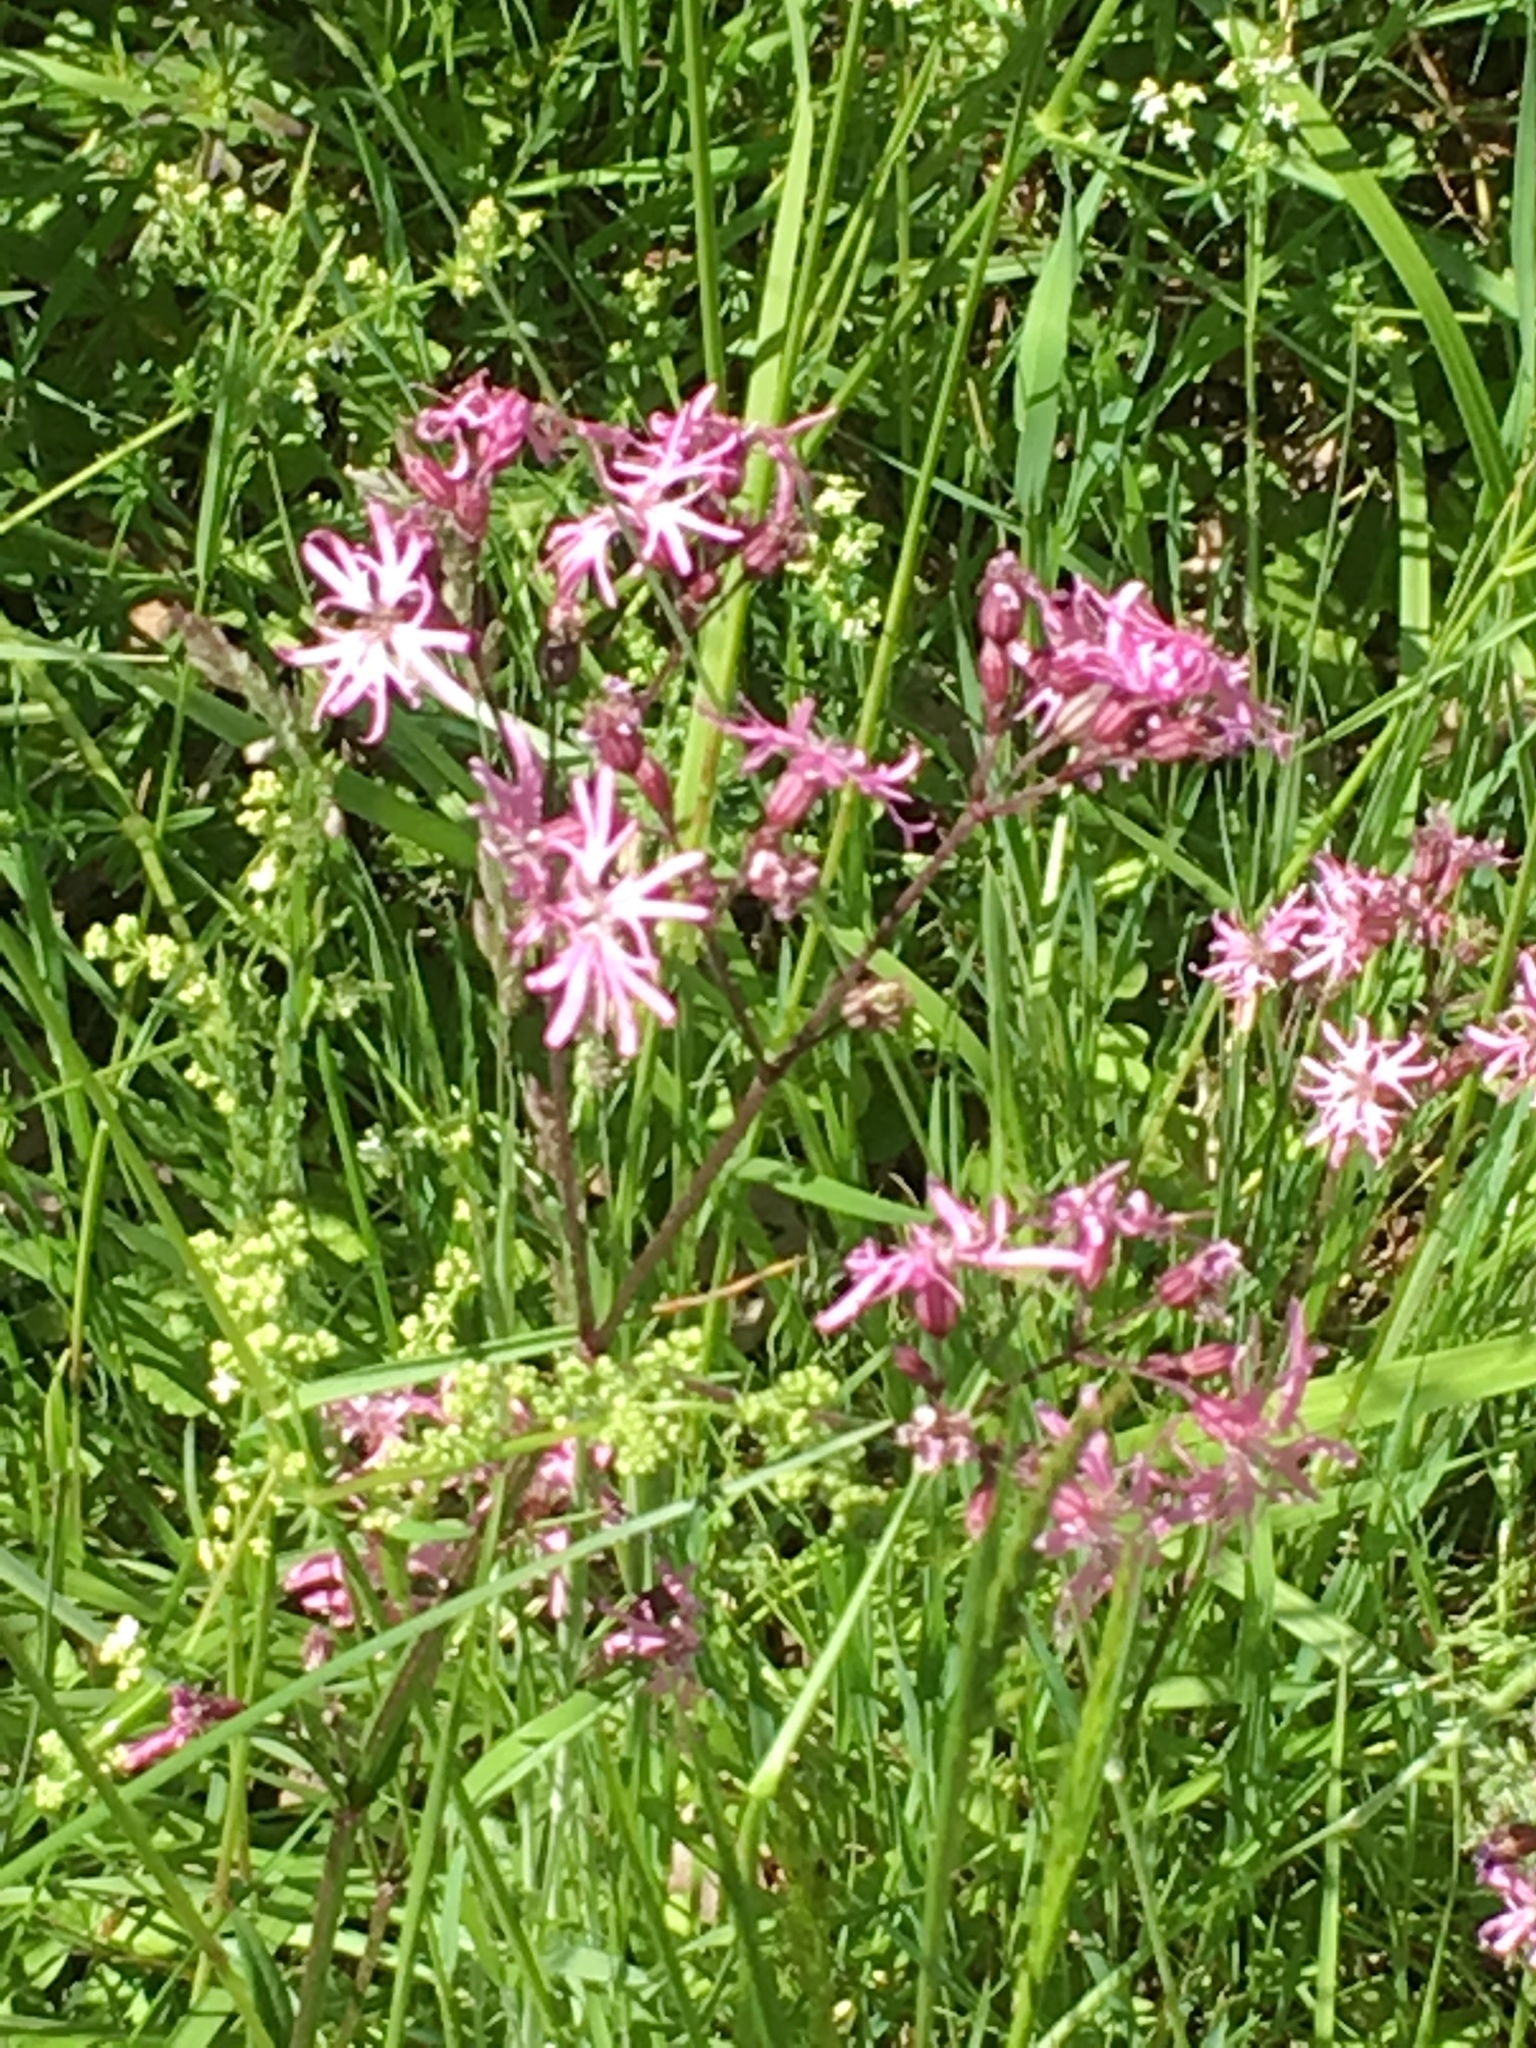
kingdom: Plantae
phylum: Tracheophyta
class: Magnoliopsida
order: Caryophyllales
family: Caryophyllaceae
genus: Silene
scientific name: Silene flos-cuculi
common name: Ragged-robin
